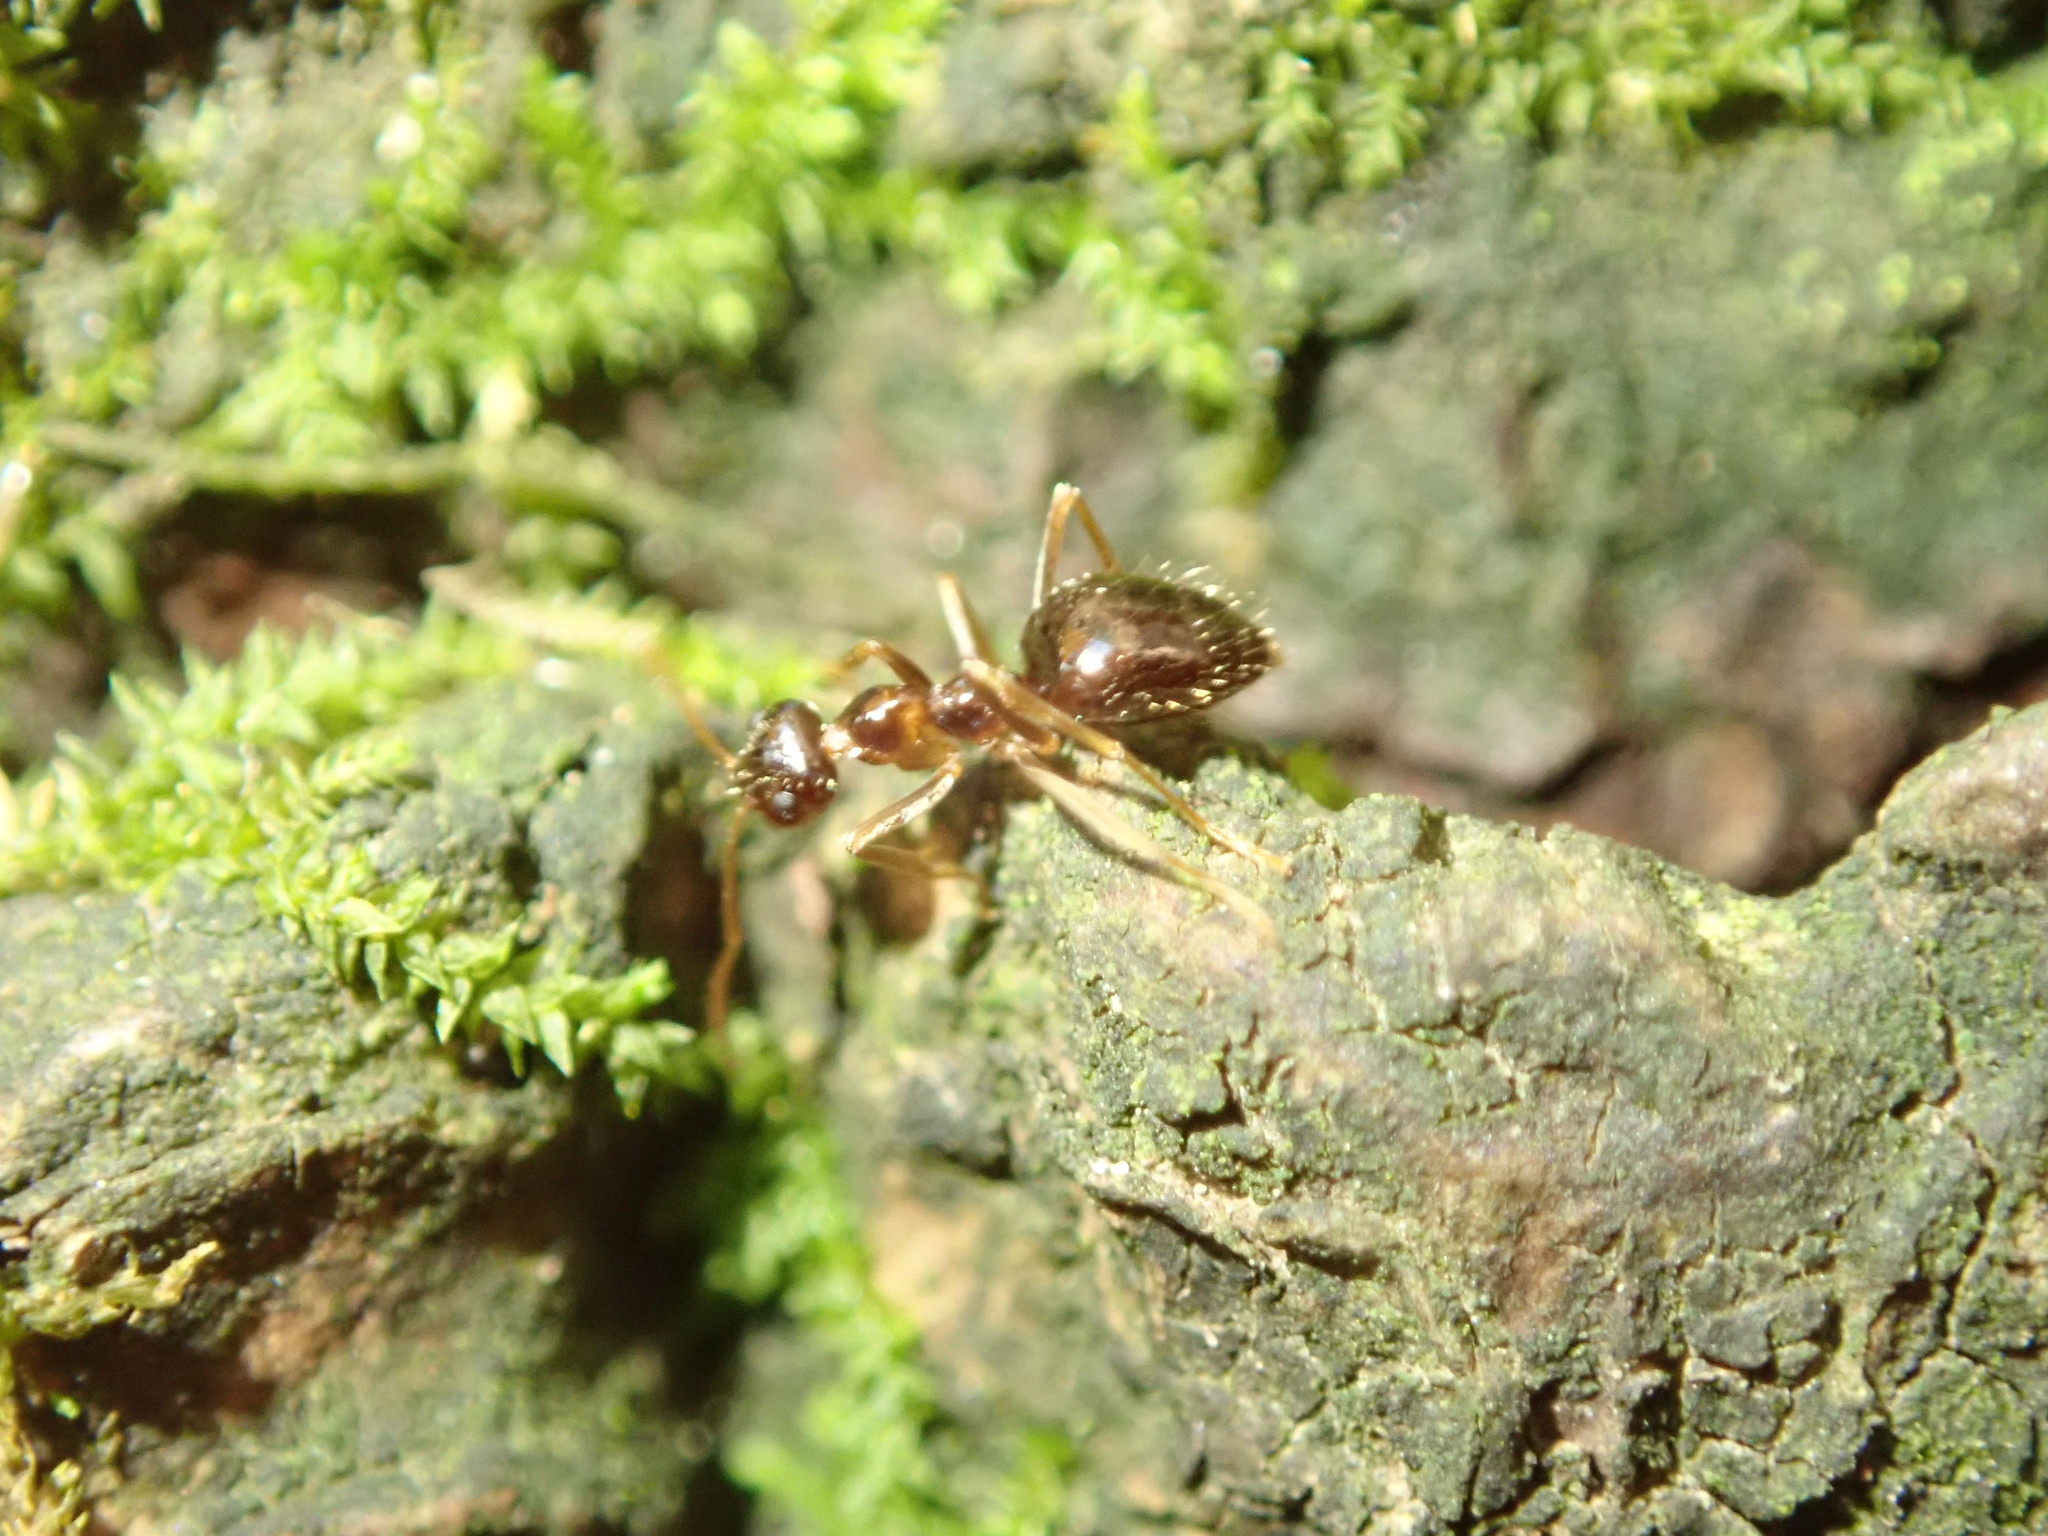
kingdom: Animalia
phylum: Arthropoda
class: Insecta
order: Hymenoptera
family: Formicidae
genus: Prenolepis
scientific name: Prenolepis imparis
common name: Small honey ant
